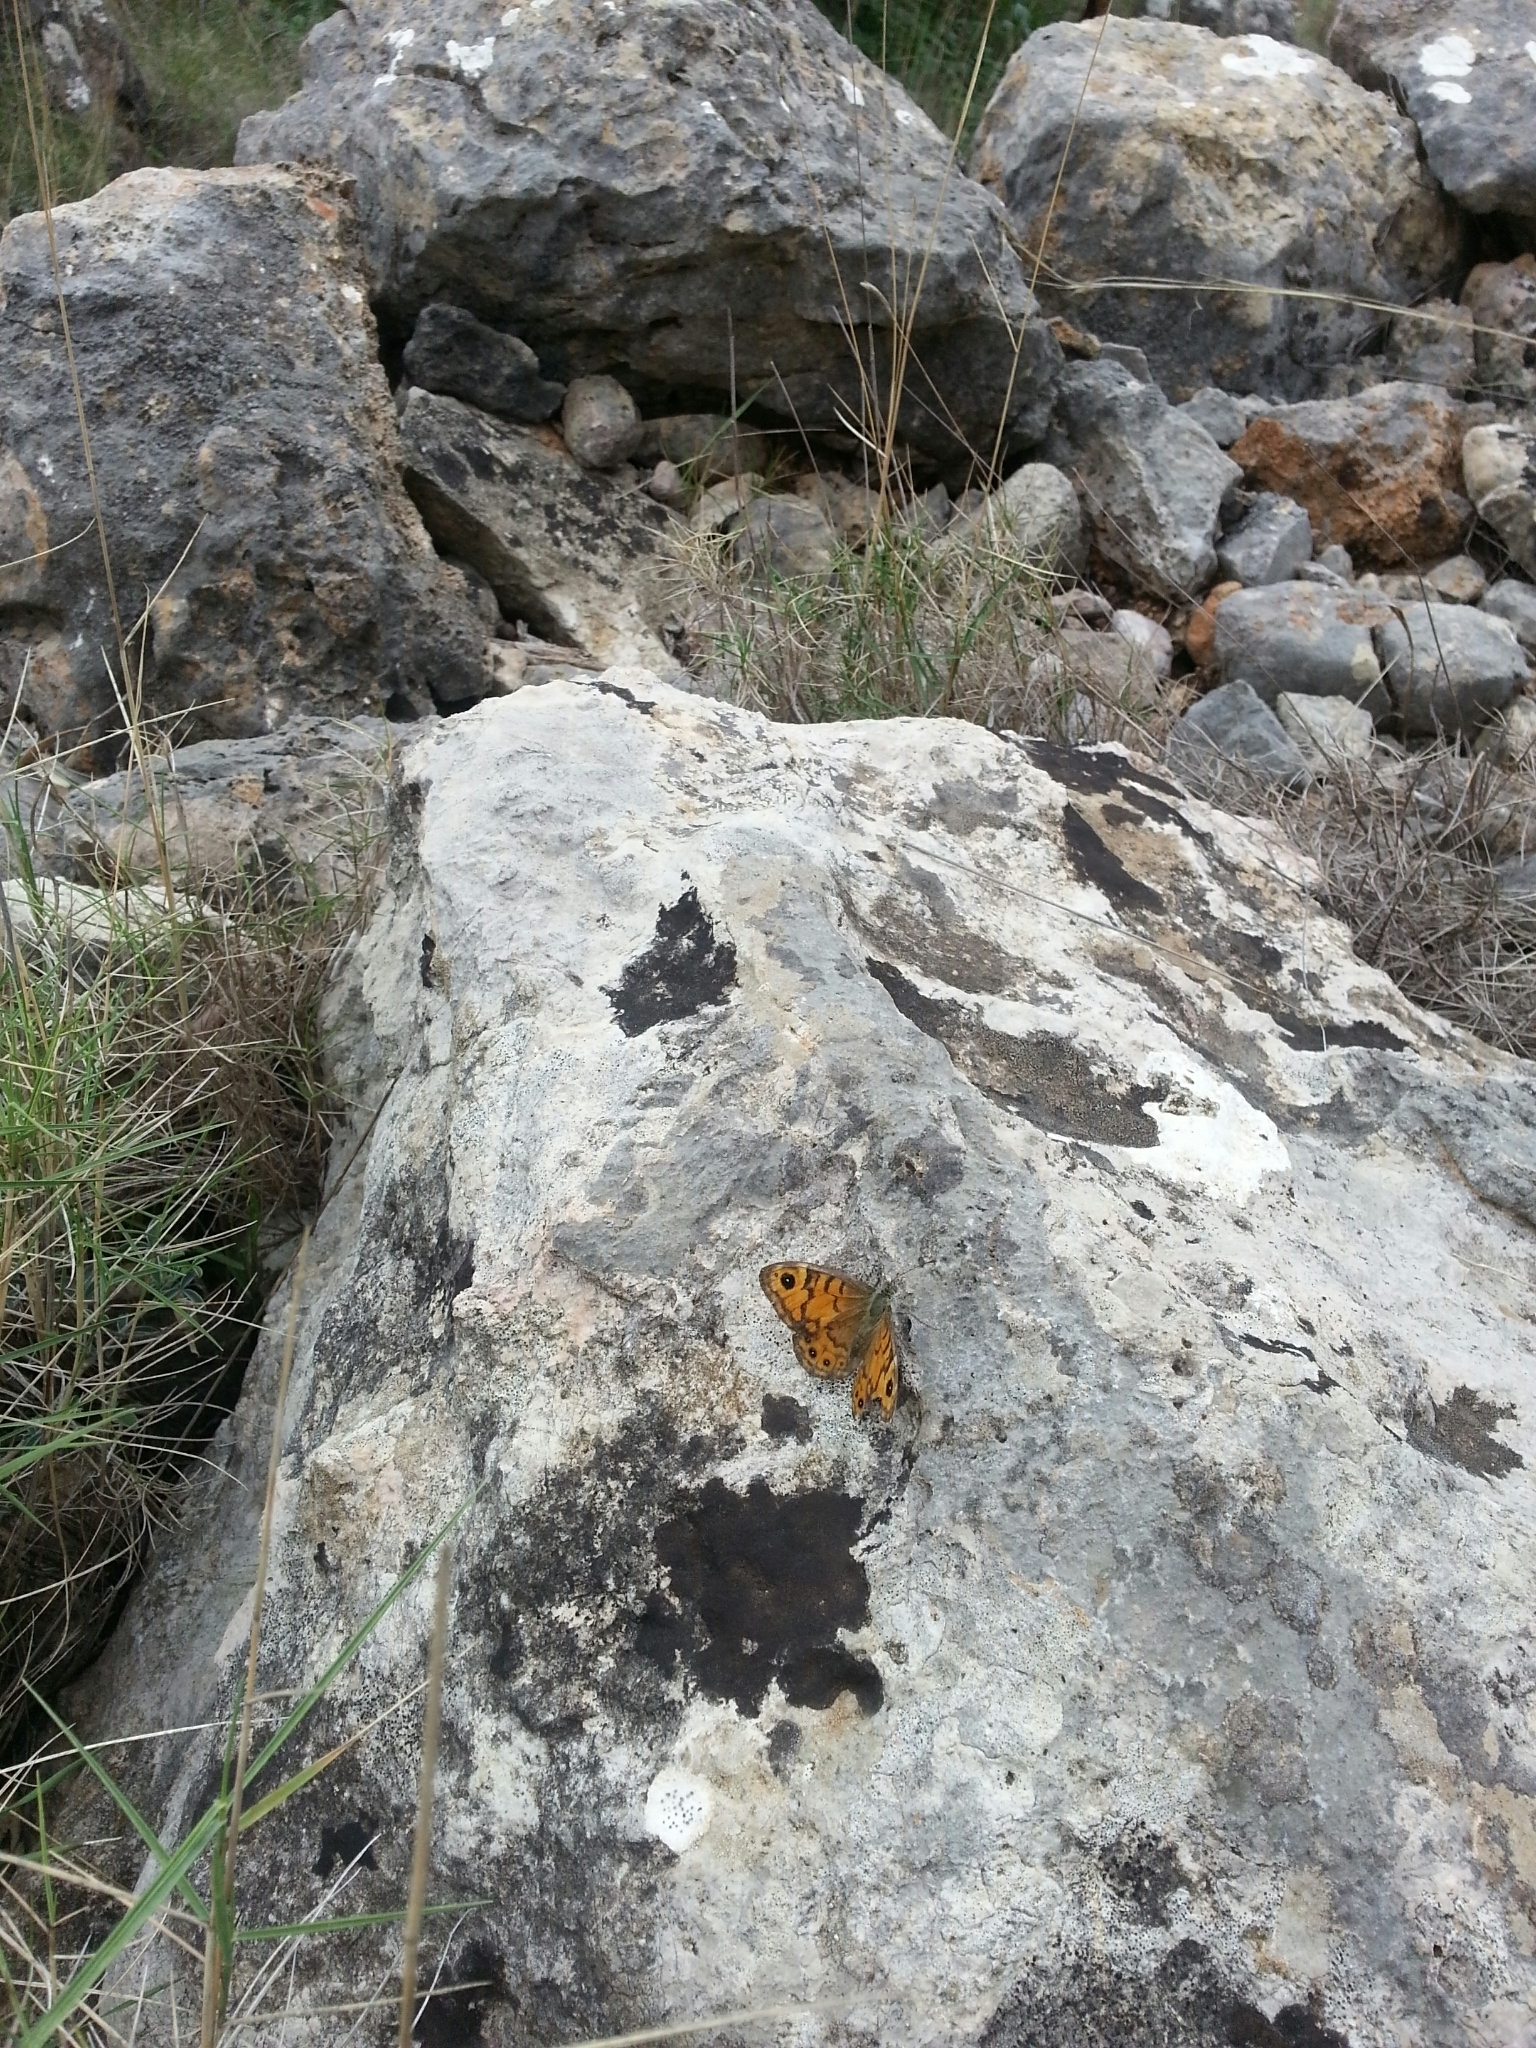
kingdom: Animalia
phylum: Arthropoda
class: Insecta
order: Lepidoptera
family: Nymphalidae
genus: Pararge
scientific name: Pararge Lasiommata megera
